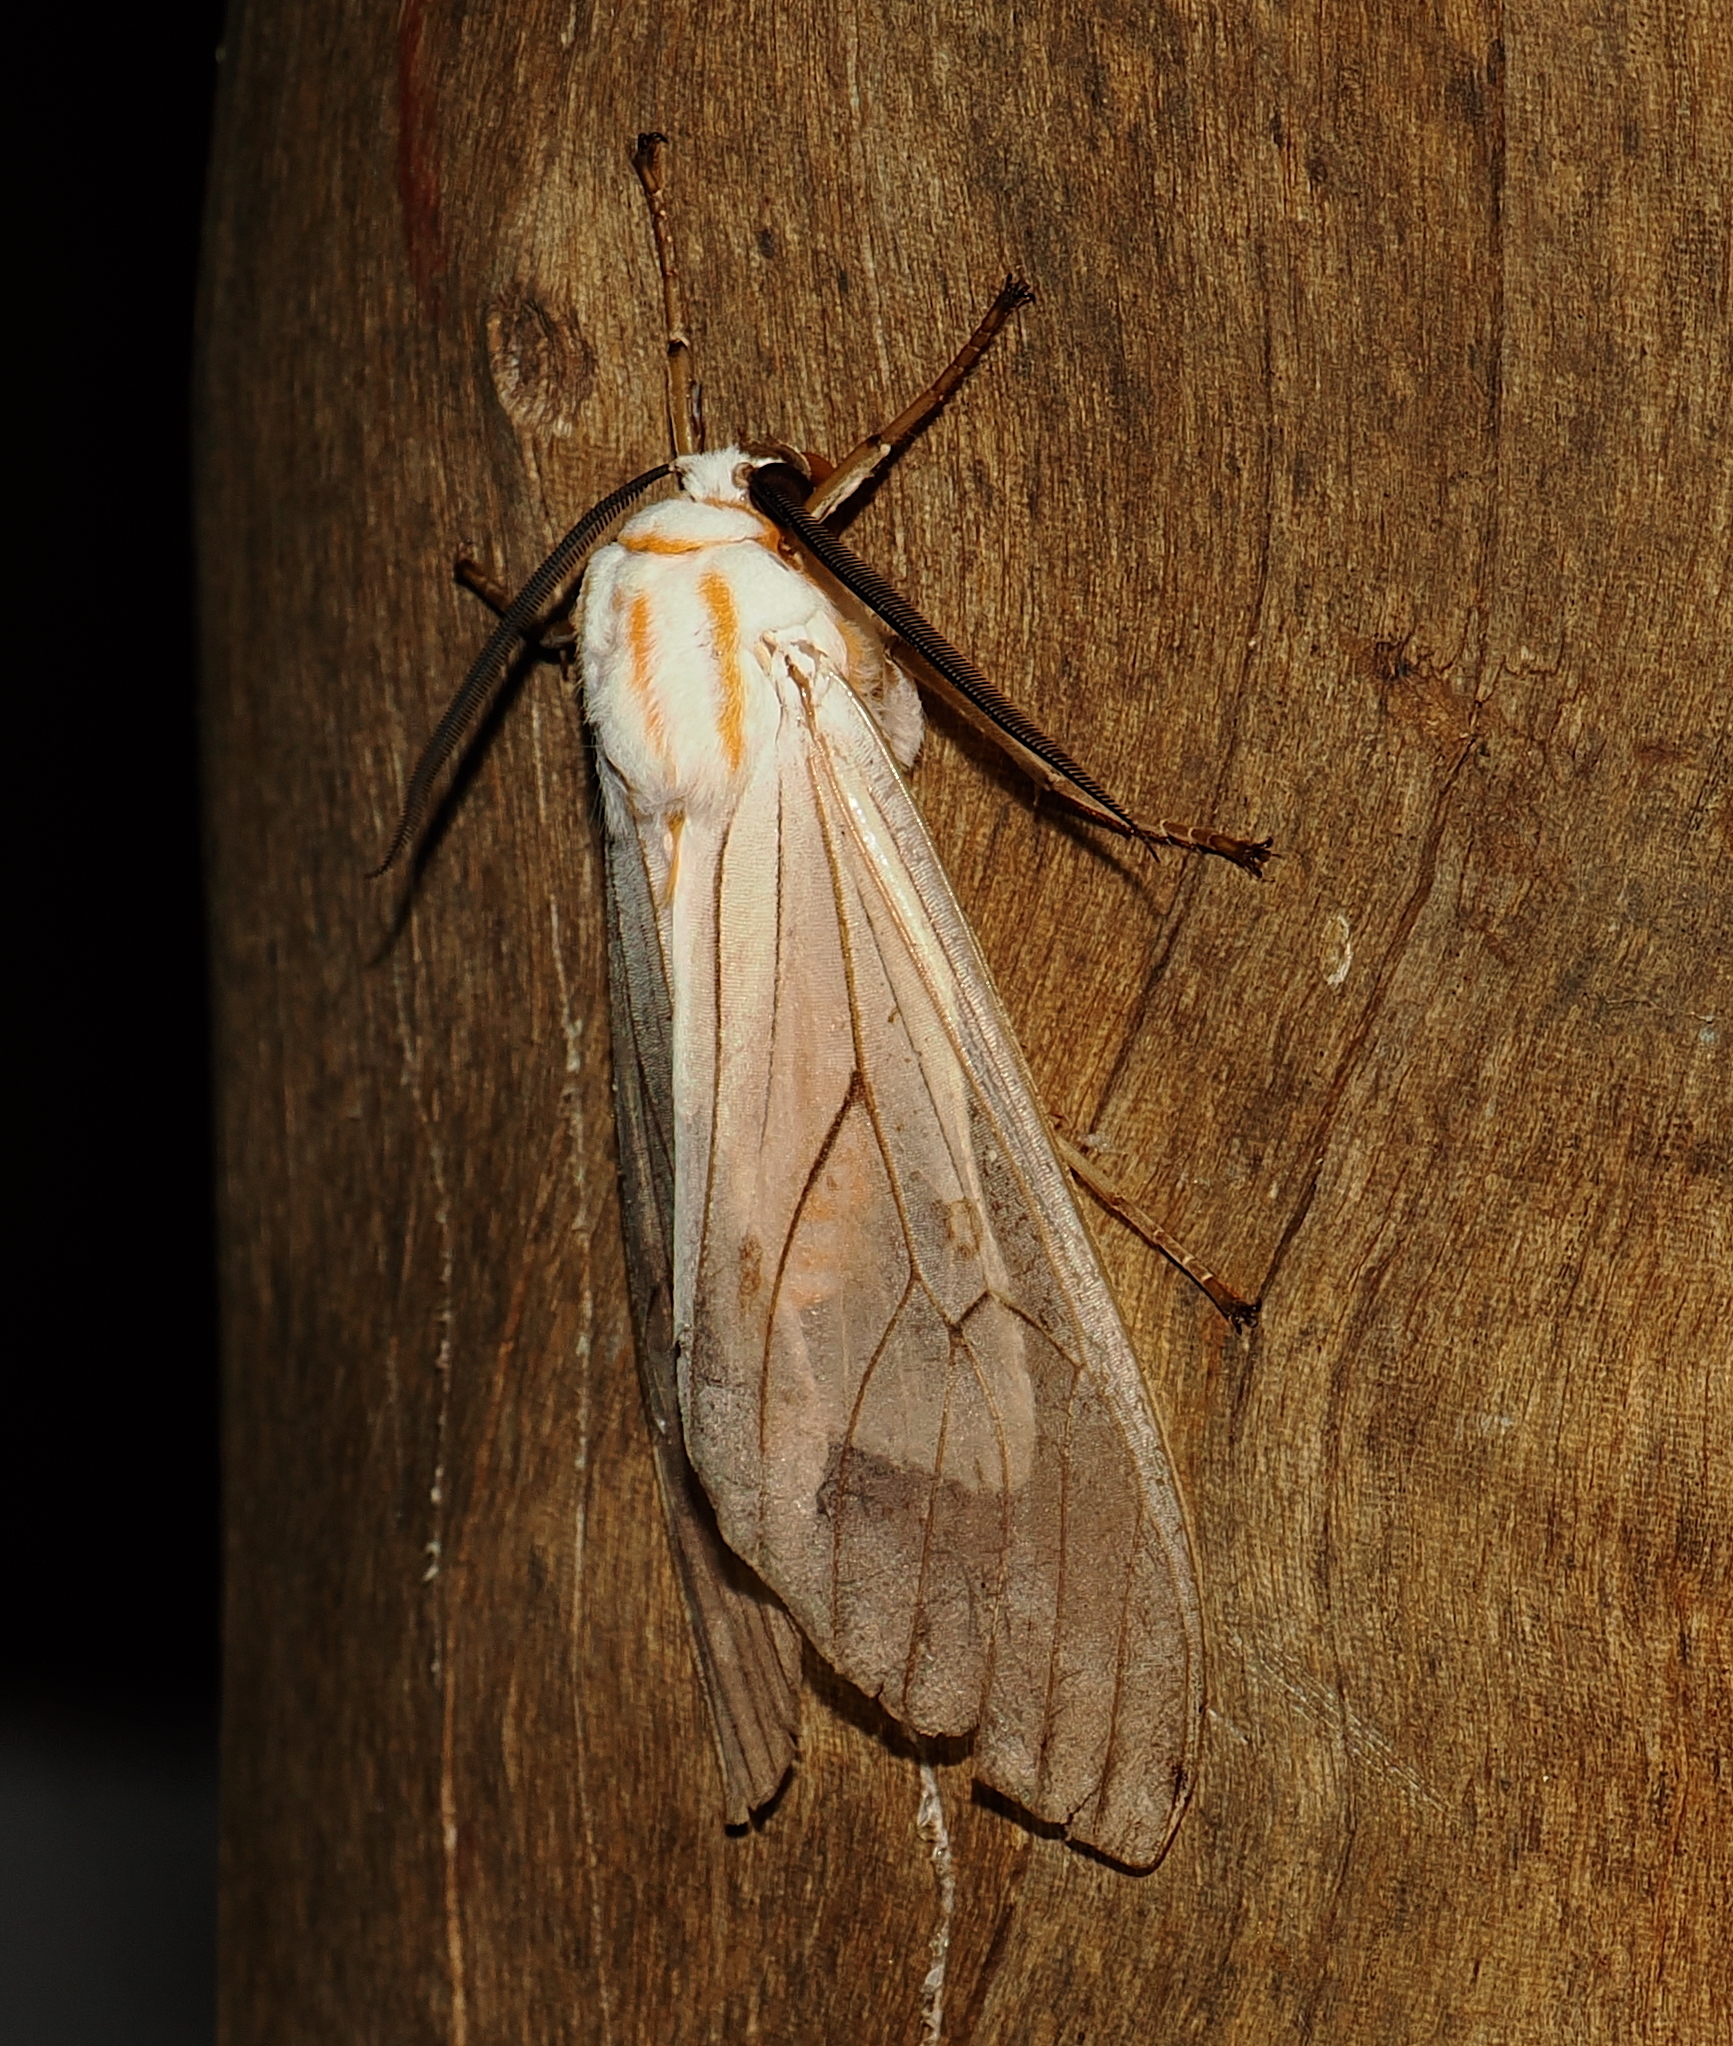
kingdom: Animalia
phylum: Arthropoda
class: Insecta
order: Lepidoptera
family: Erebidae
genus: Amastus
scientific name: Amastus aconia
